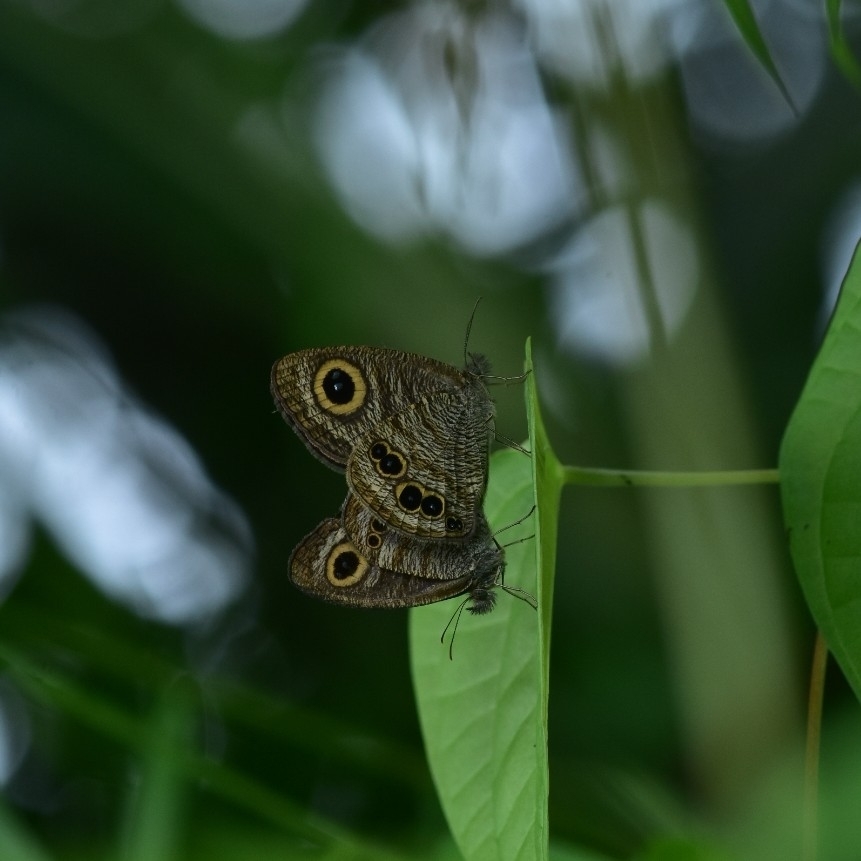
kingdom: Animalia
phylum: Arthropoda
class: Insecta
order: Lepidoptera
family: Nymphalidae
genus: Ypthima
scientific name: Ypthima baldus
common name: Common five-ring
